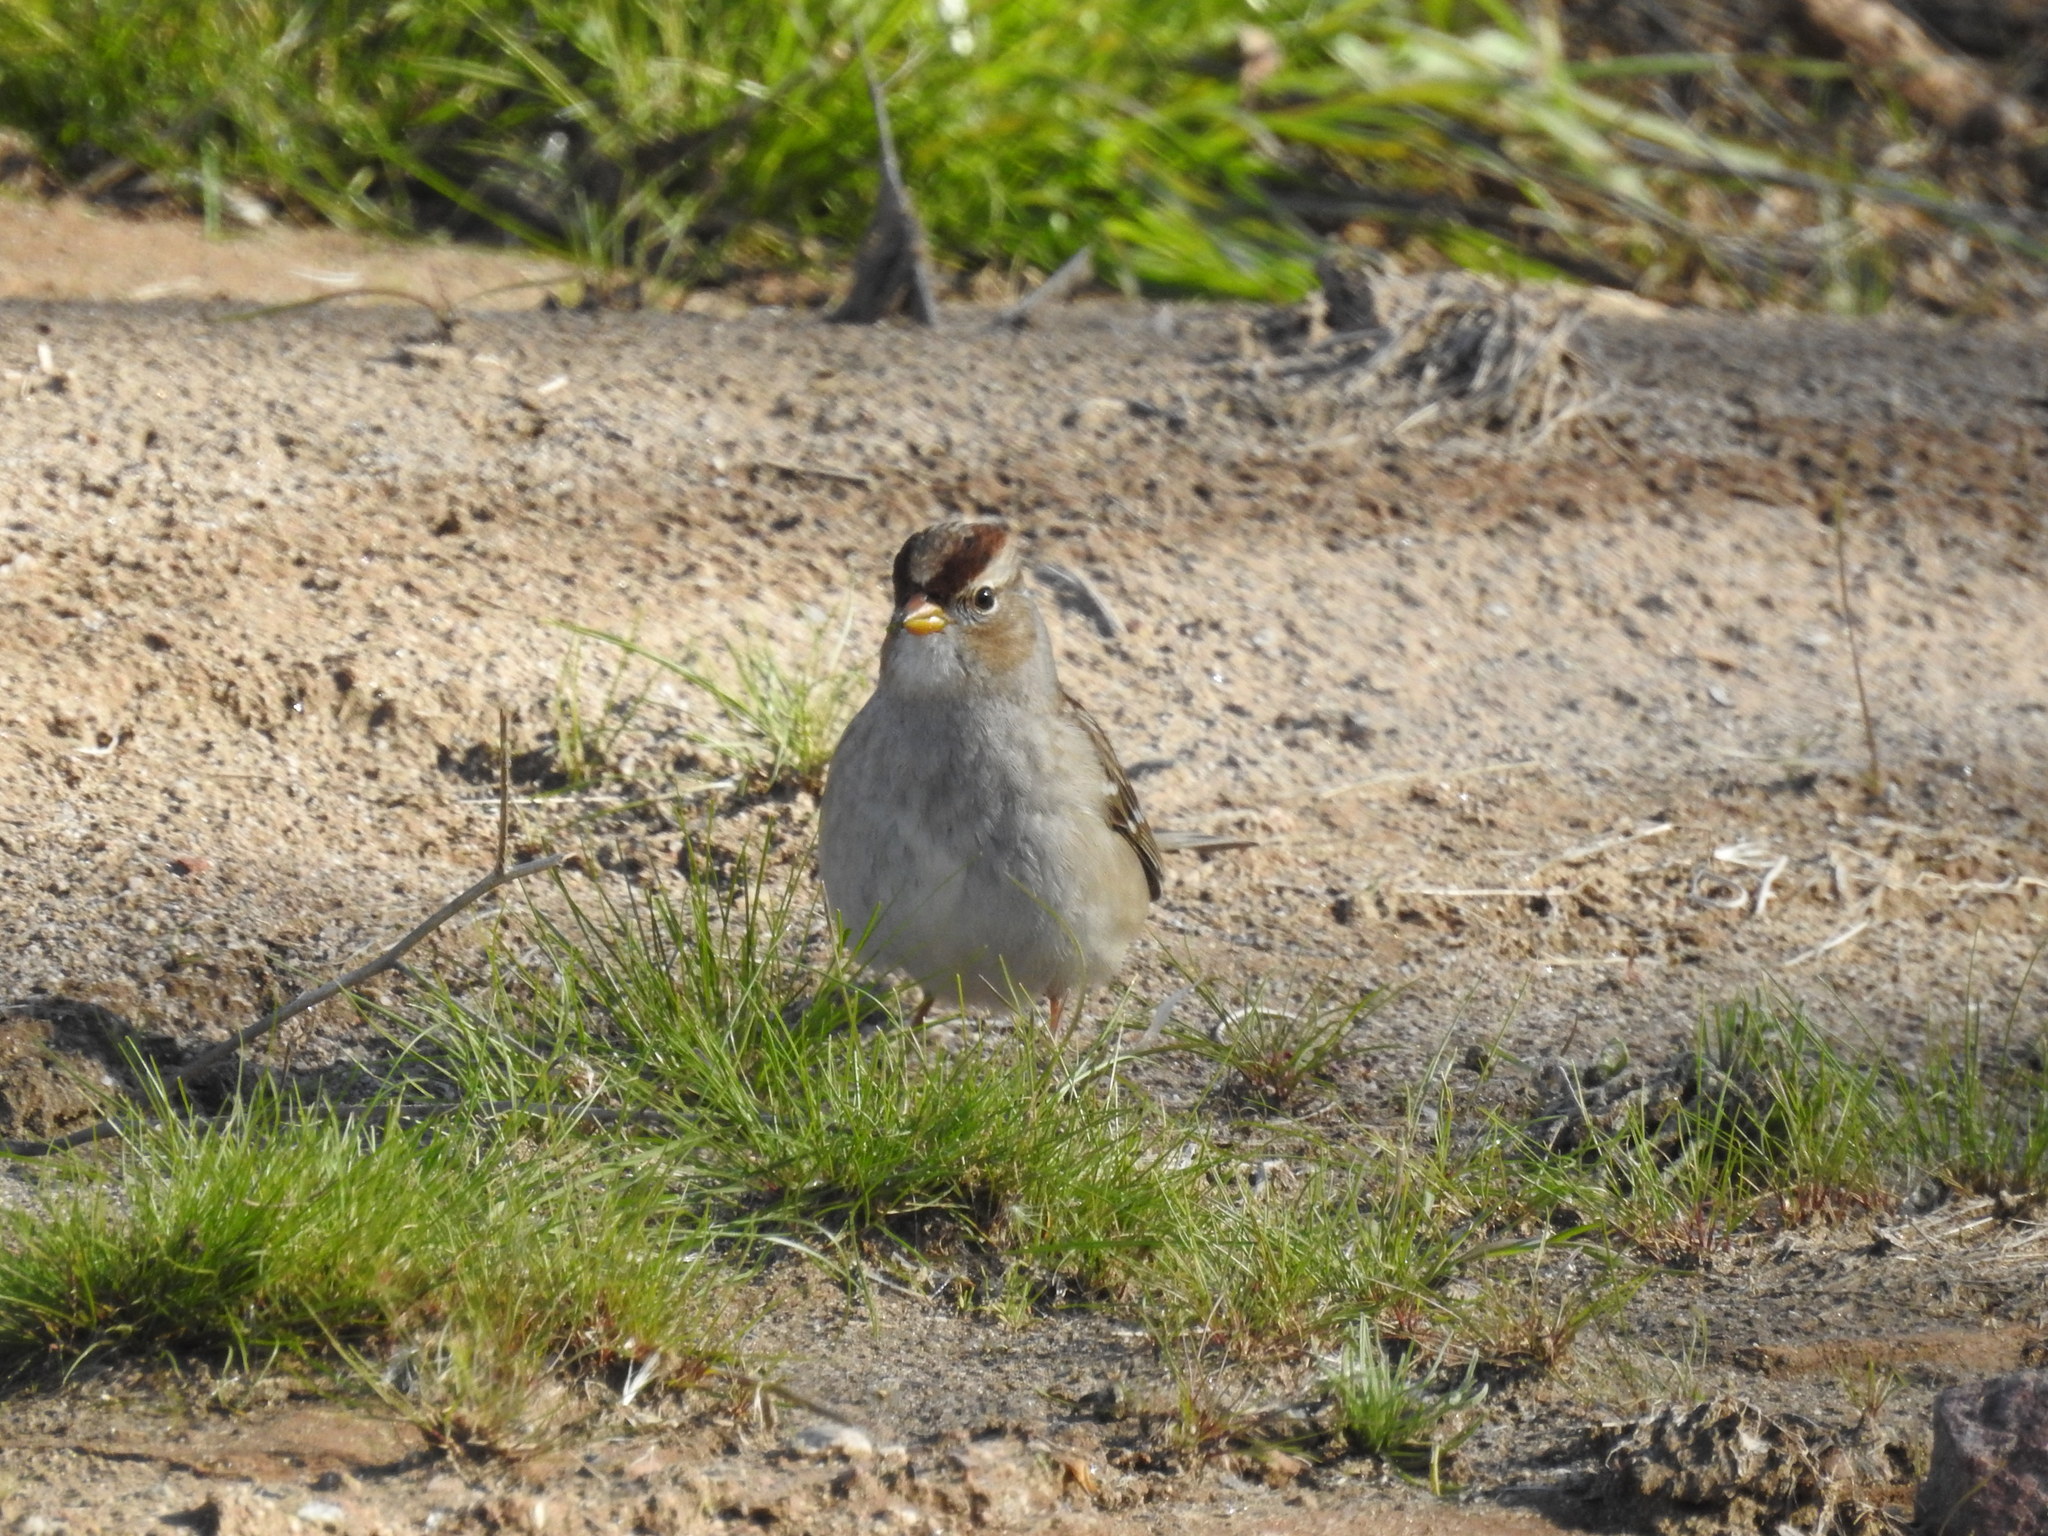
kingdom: Animalia
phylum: Chordata
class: Aves
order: Passeriformes
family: Passerellidae
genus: Zonotrichia
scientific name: Zonotrichia leucophrys
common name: White-crowned sparrow
